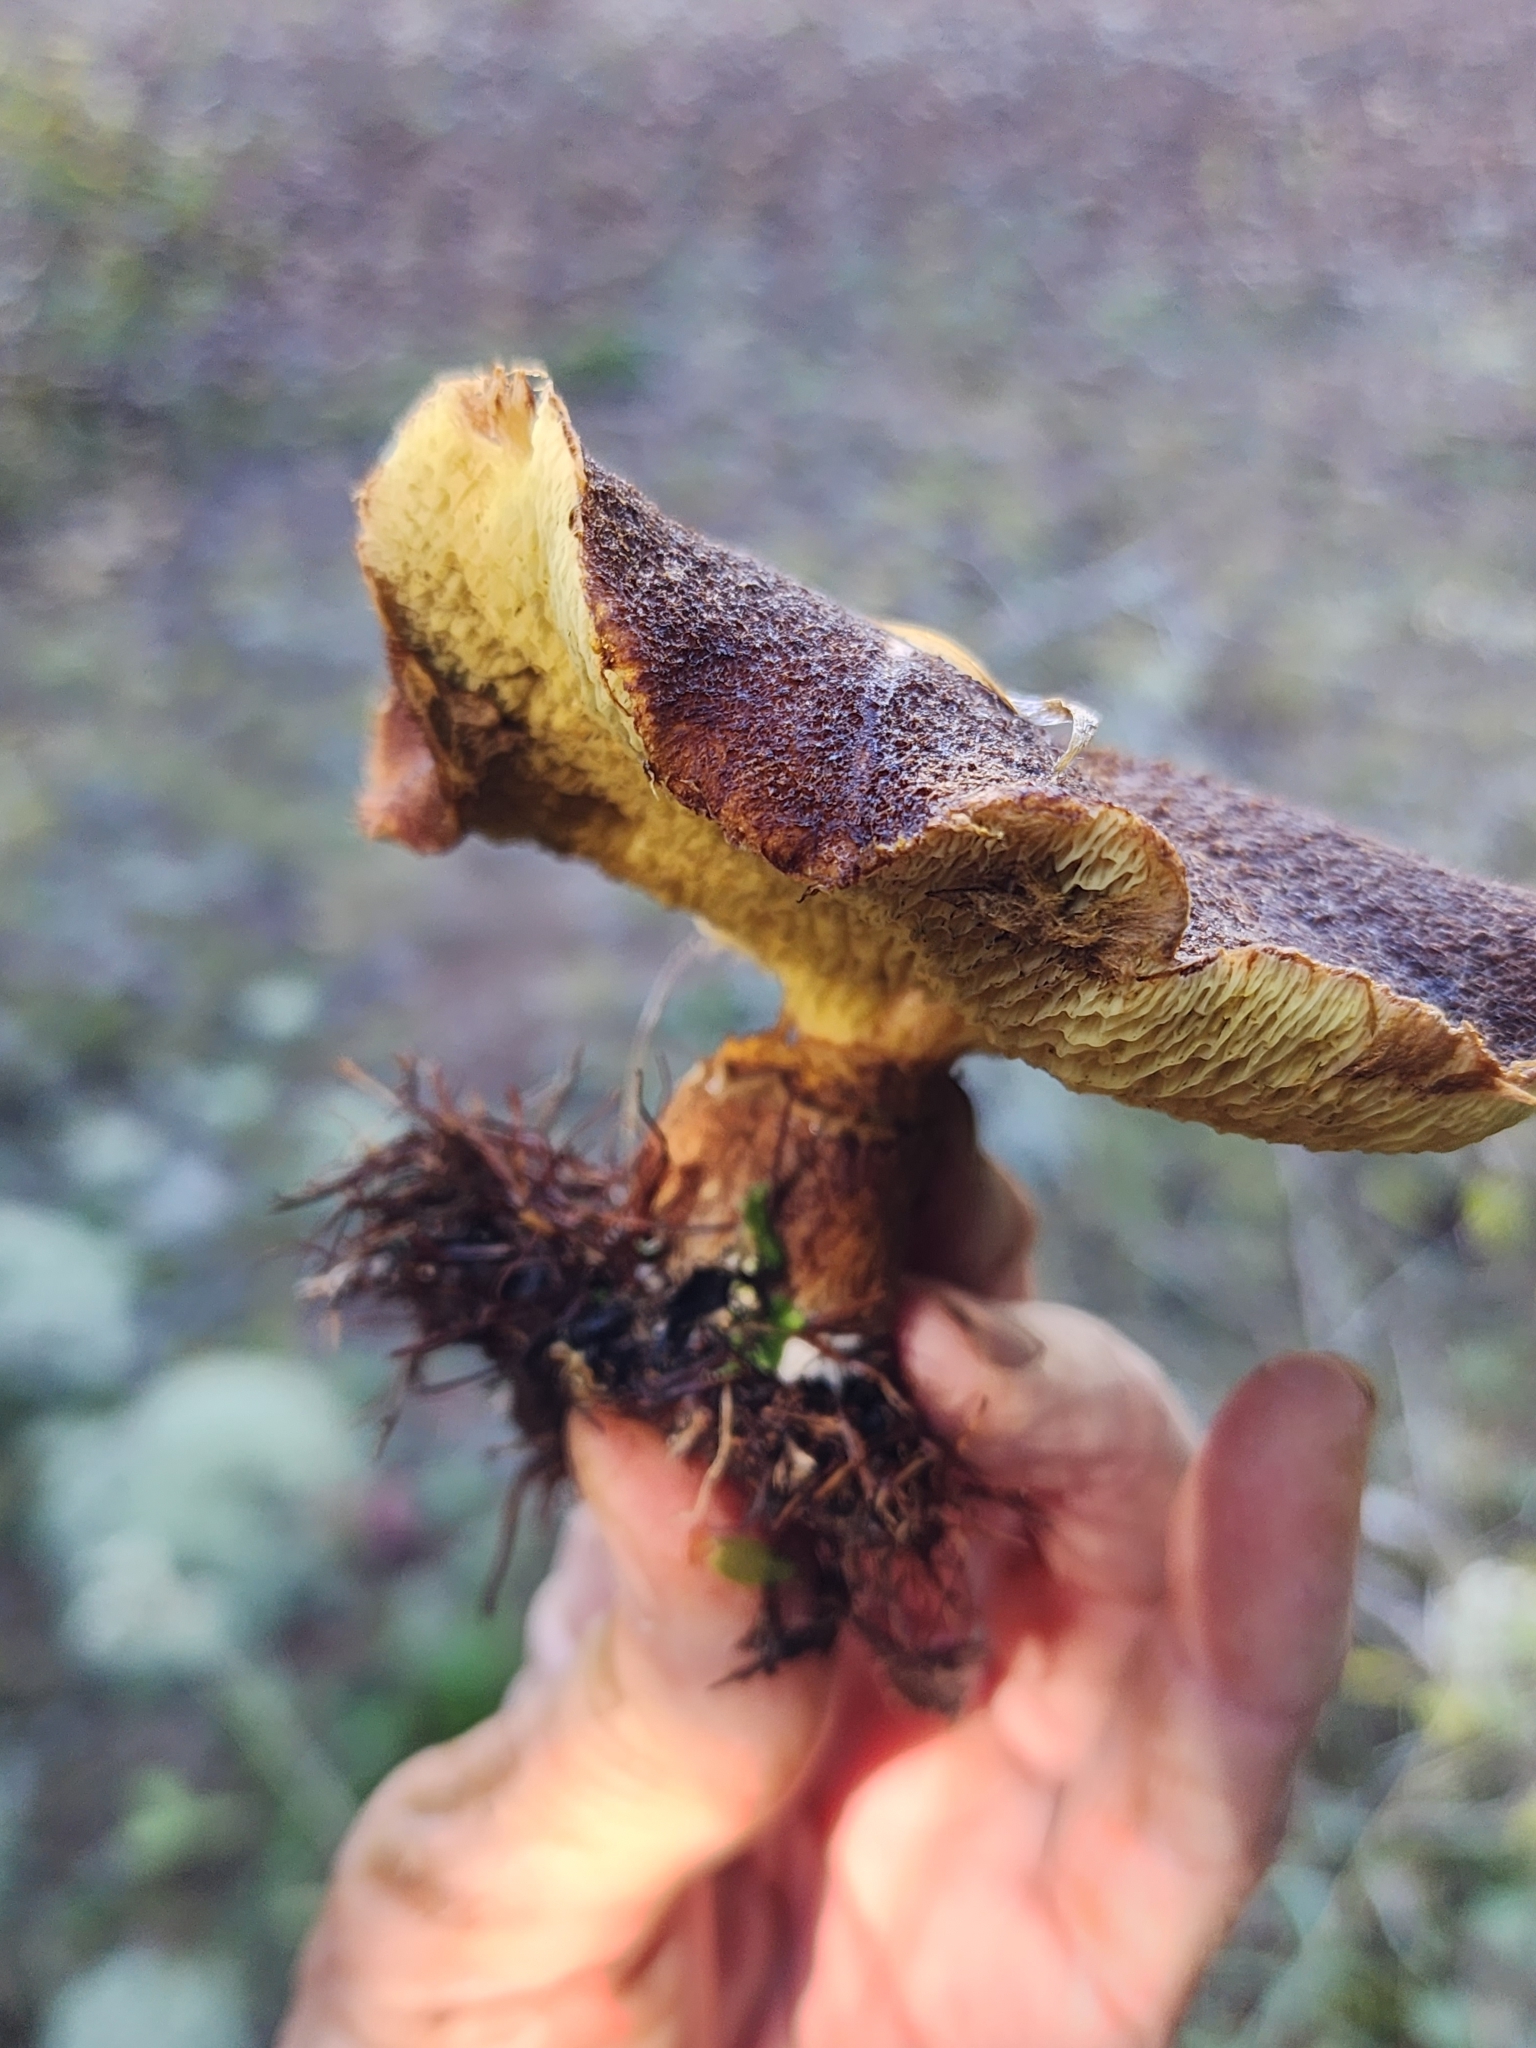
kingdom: Fungi
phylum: Basidiomycota
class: Agaricomycetes
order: Boletales
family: Suillaceae
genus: Boletinus
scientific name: Boletinus ampliporus
